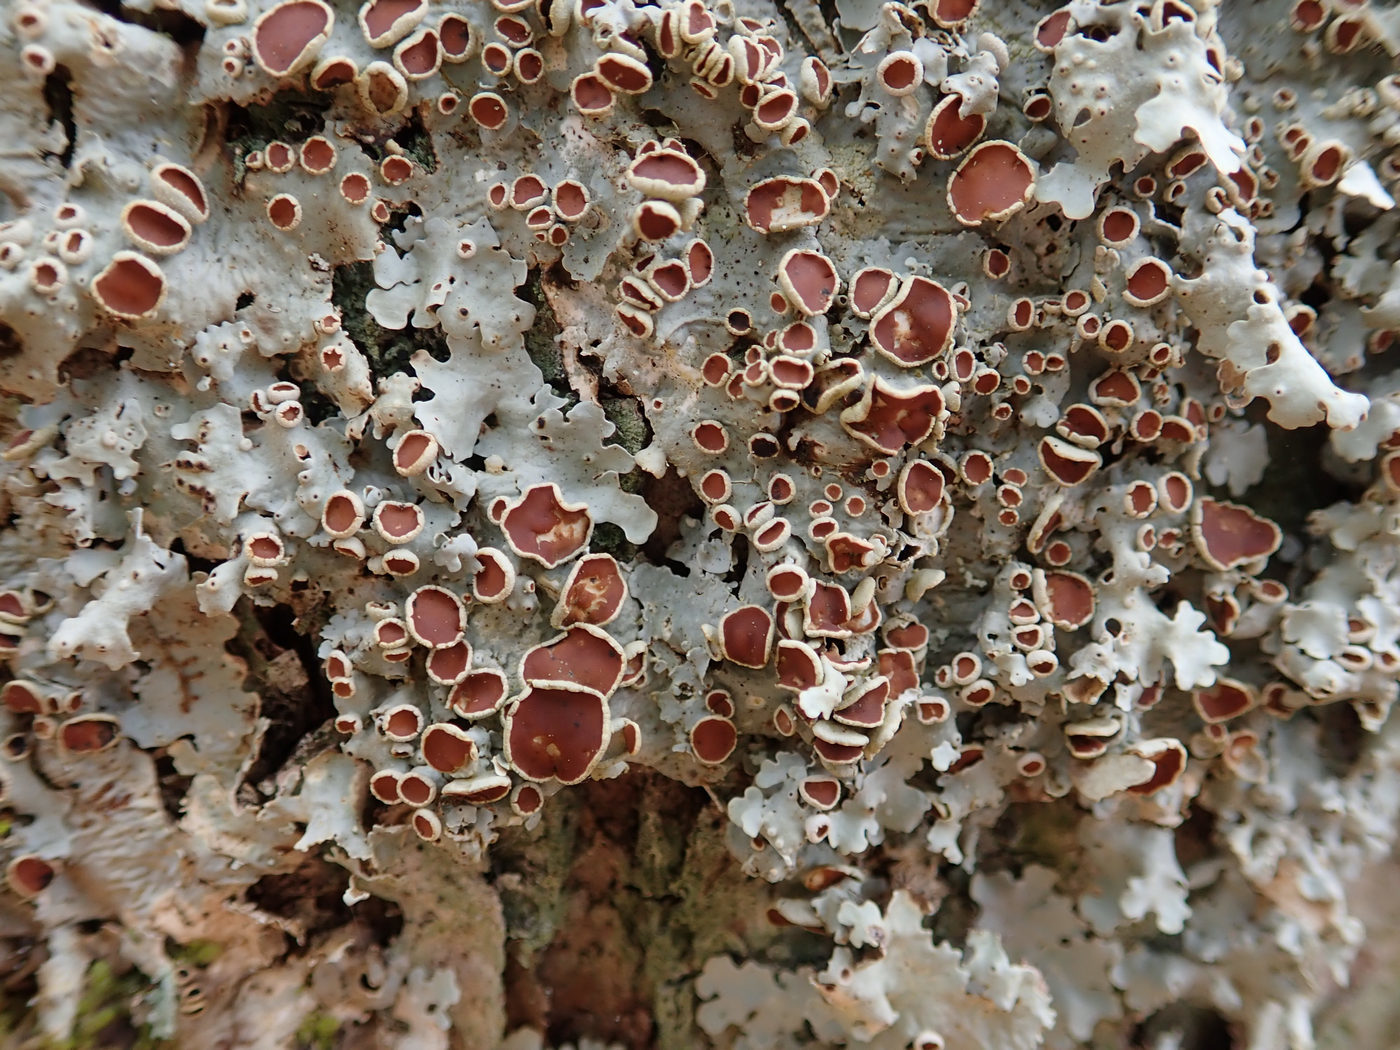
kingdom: Fungi
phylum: Ascomycota
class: Lecanoromycetes
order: Peltigerales
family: Lobariaceae
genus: Ricasolia
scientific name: Ricasolia quercizans
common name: Smooth lungwort
